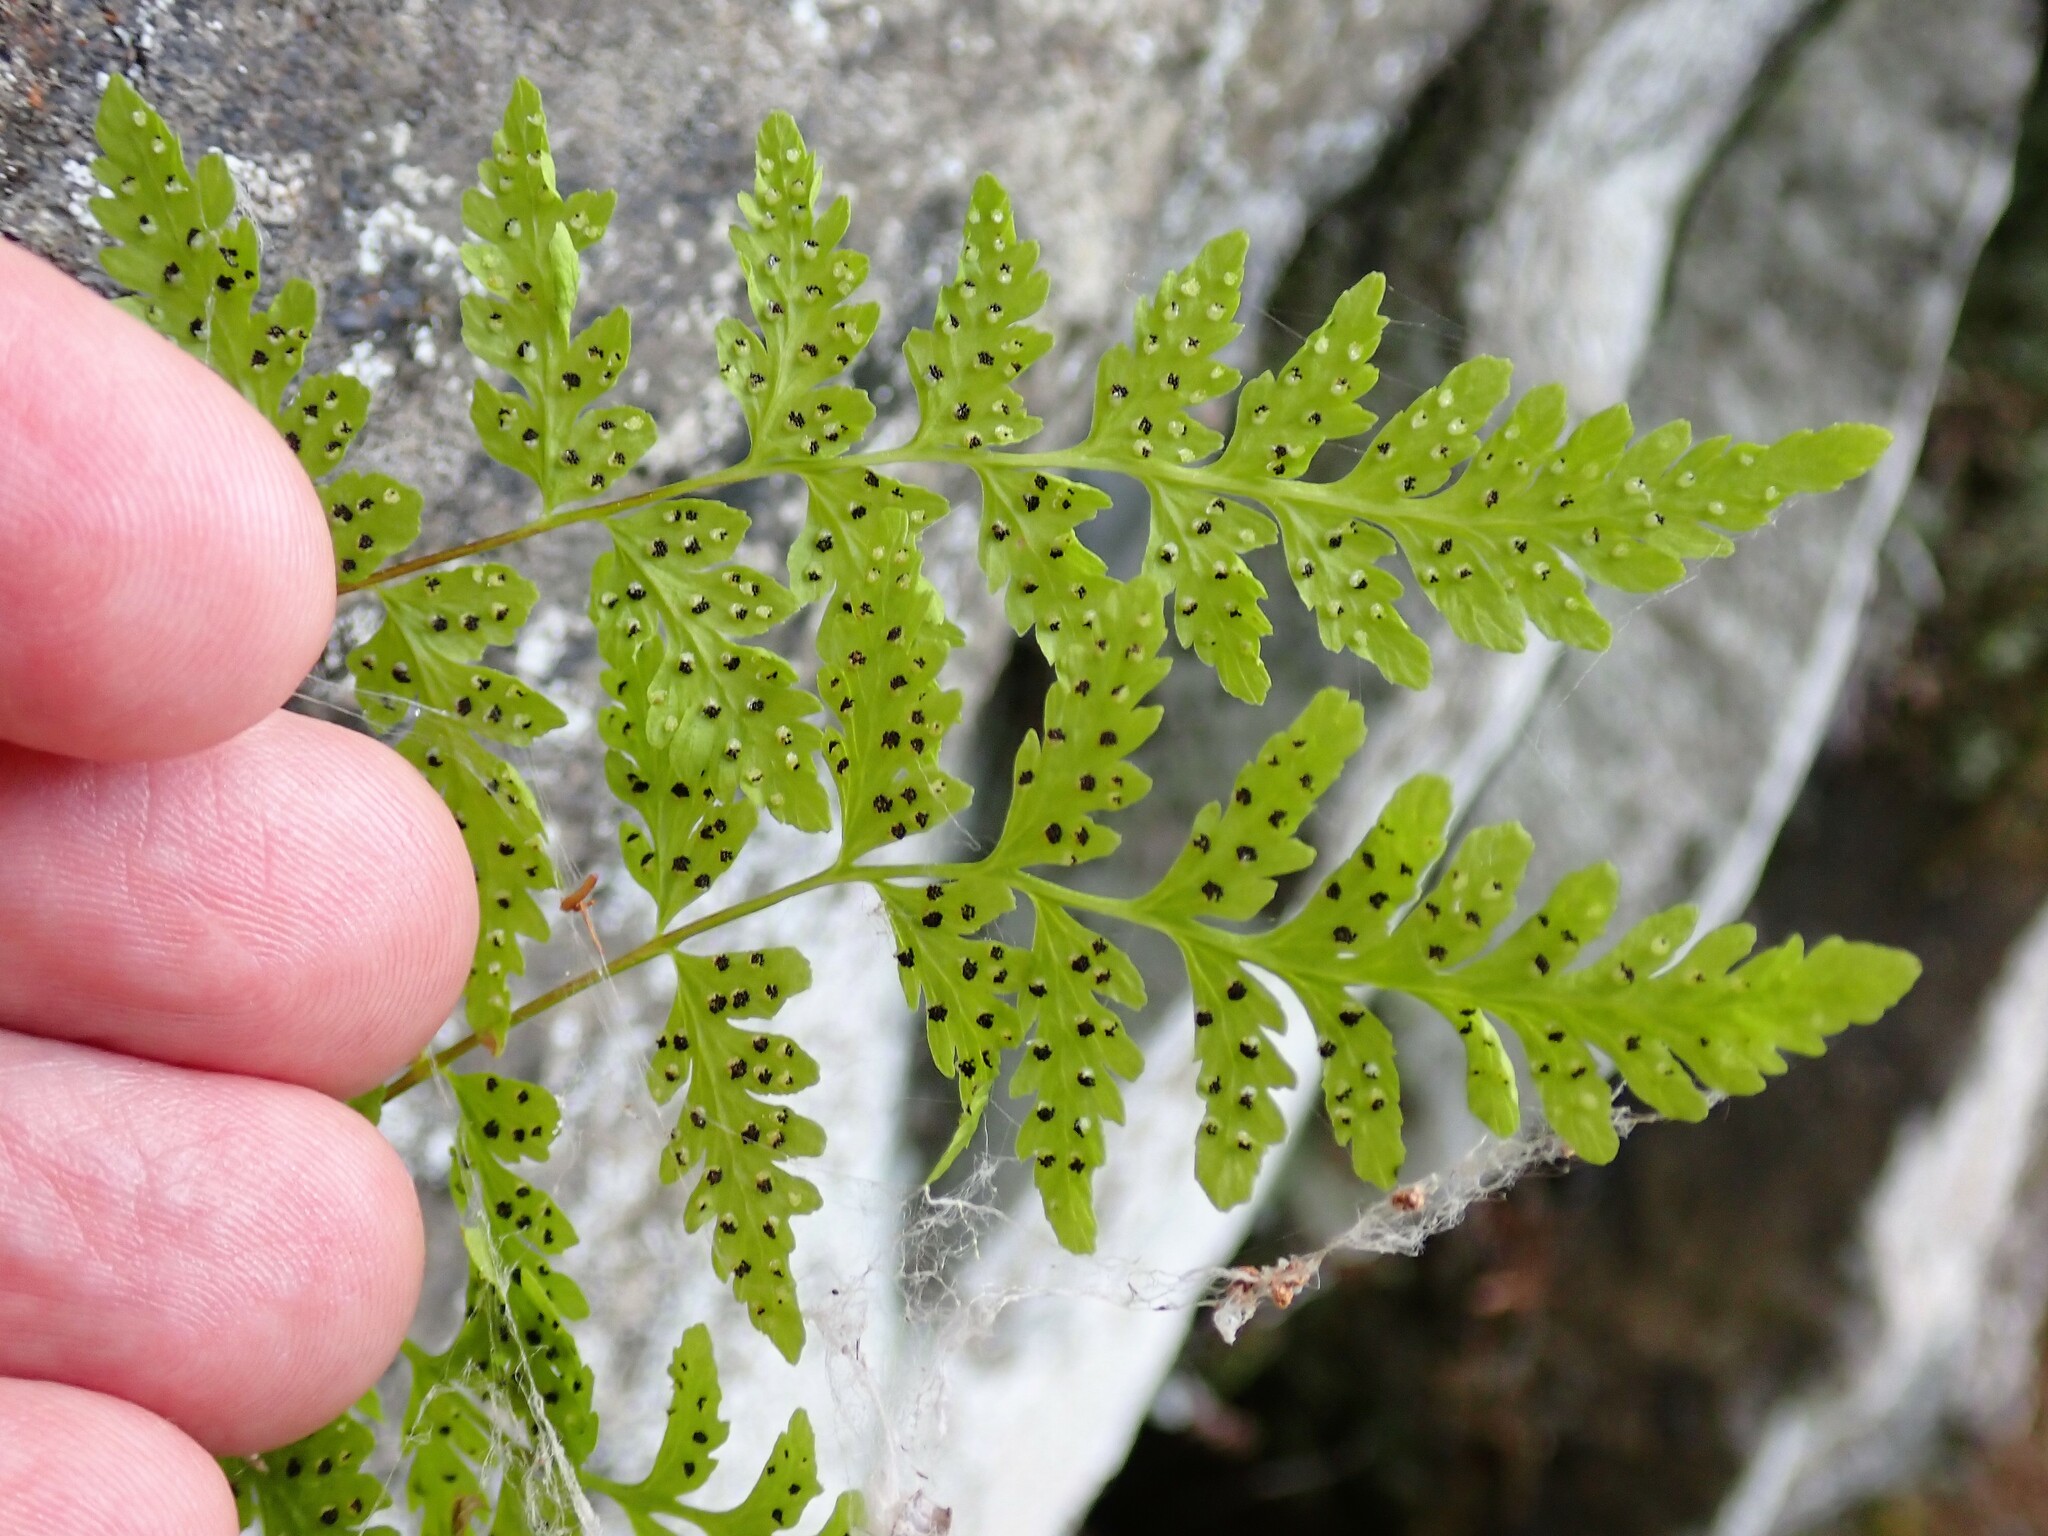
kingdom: Plantae
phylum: Tracheophyta
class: Polypodiopsida
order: Polypodiales
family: Cystopteridaceae
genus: Cystopteris
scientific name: Cystopteris fragilis
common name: Brittle bladder fern
